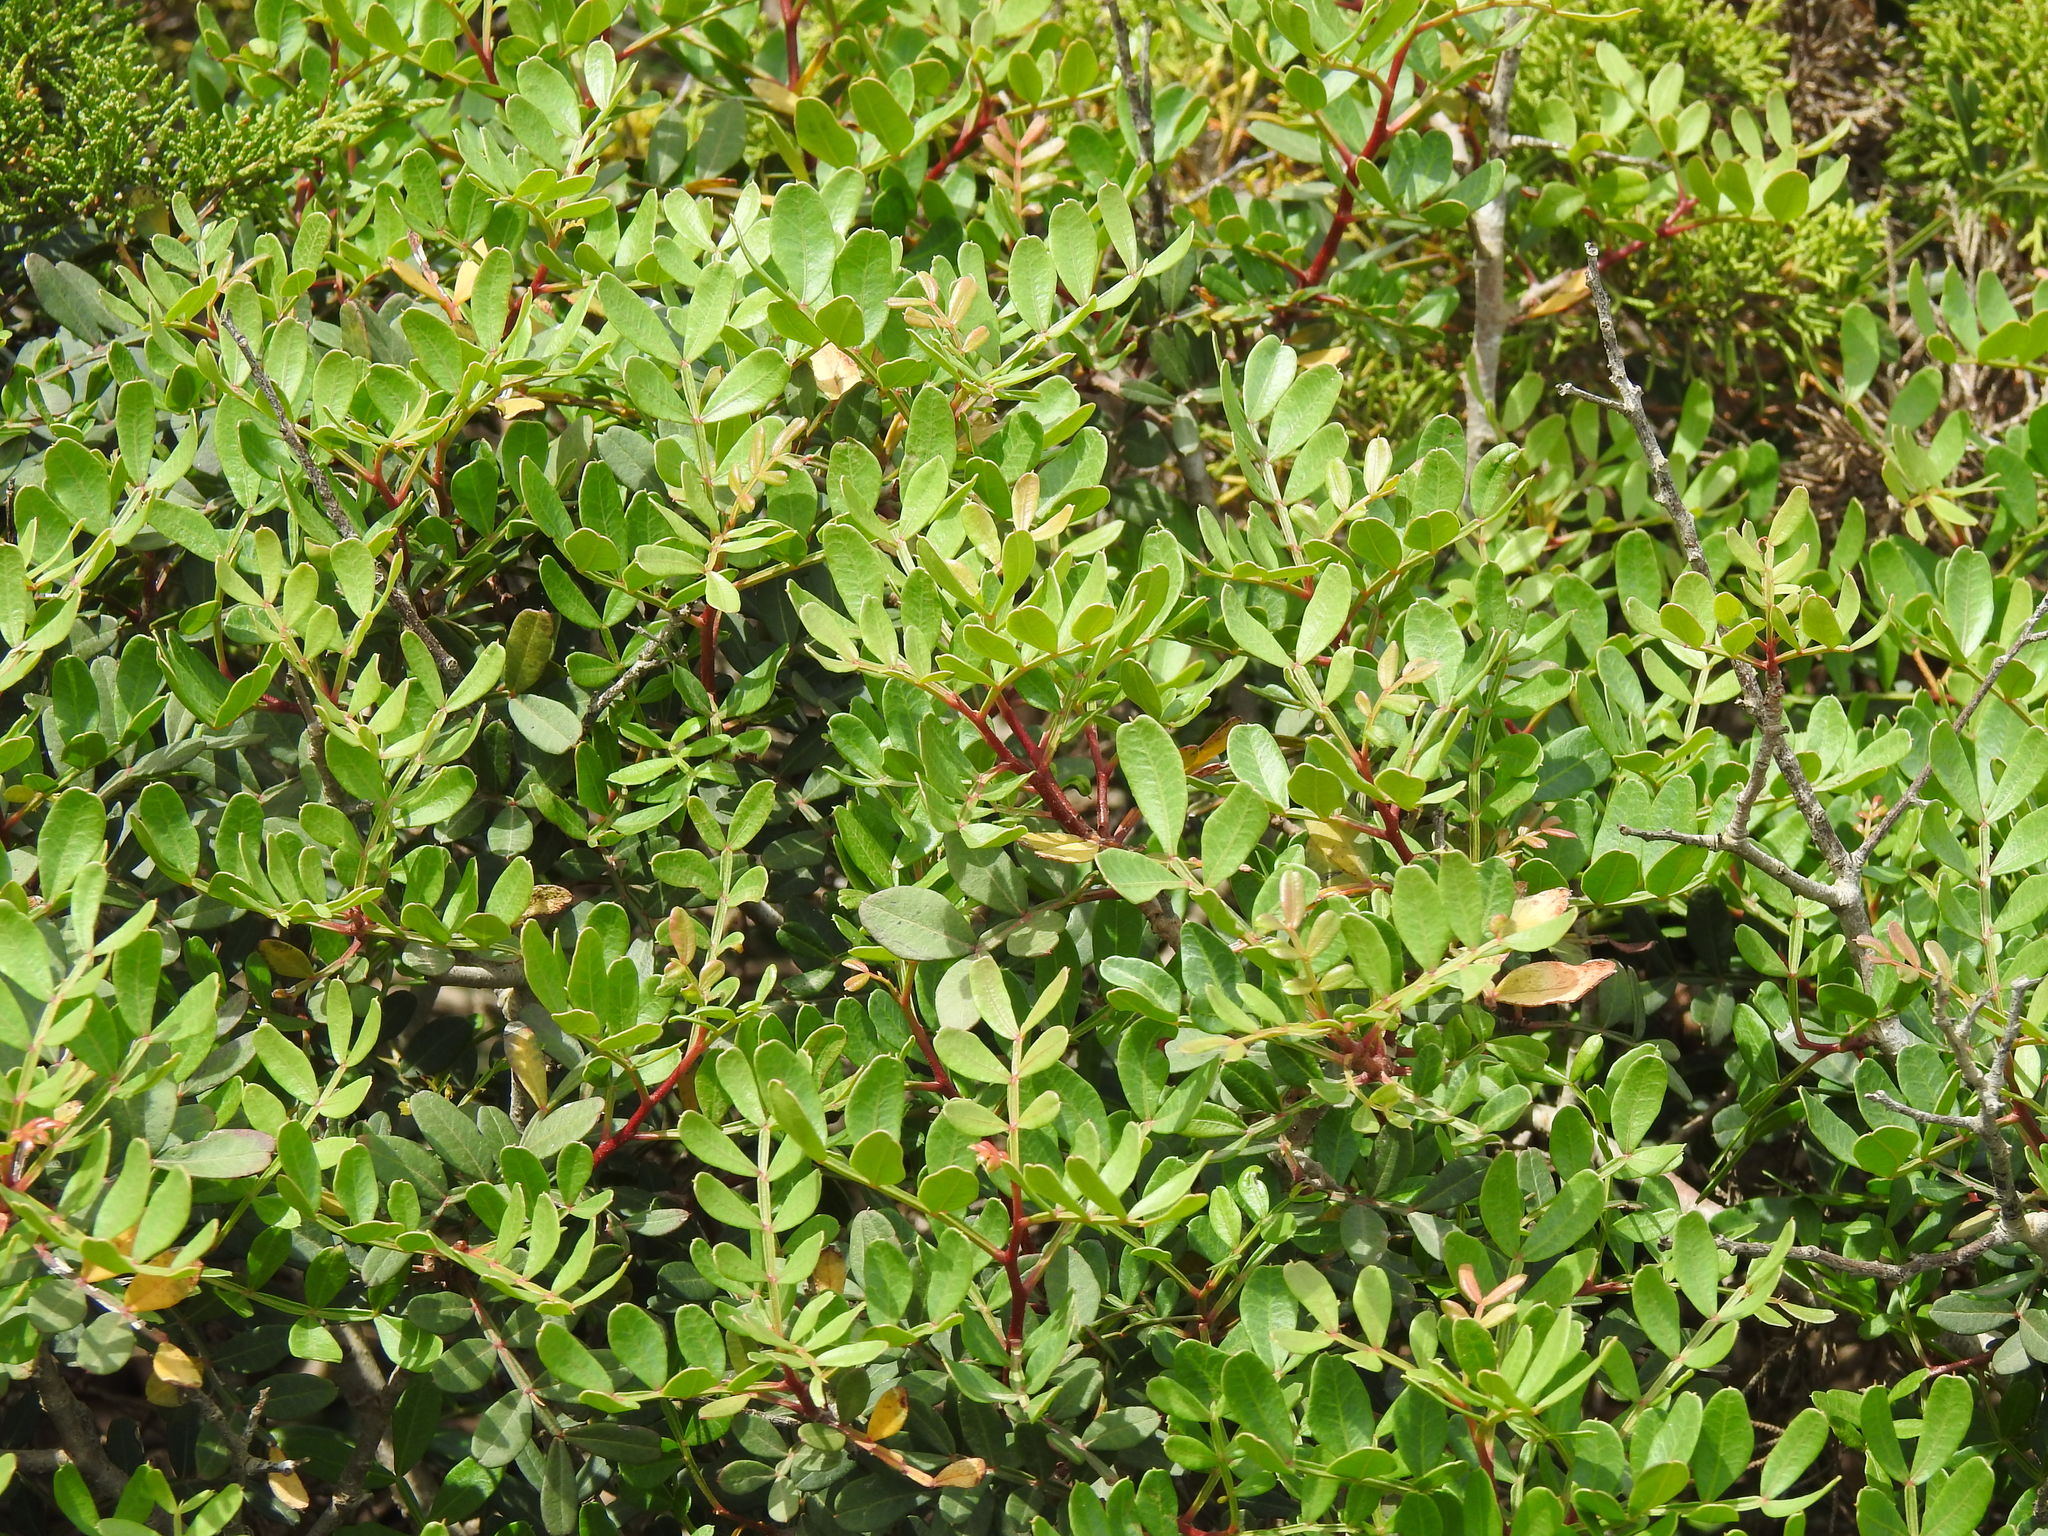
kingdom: Plantae
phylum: Tracheophyta
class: Magnoliopsida
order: Sapindales
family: Anacardiaceae
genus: Pistacia
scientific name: Pistacia lentiscus
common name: Lentisk
